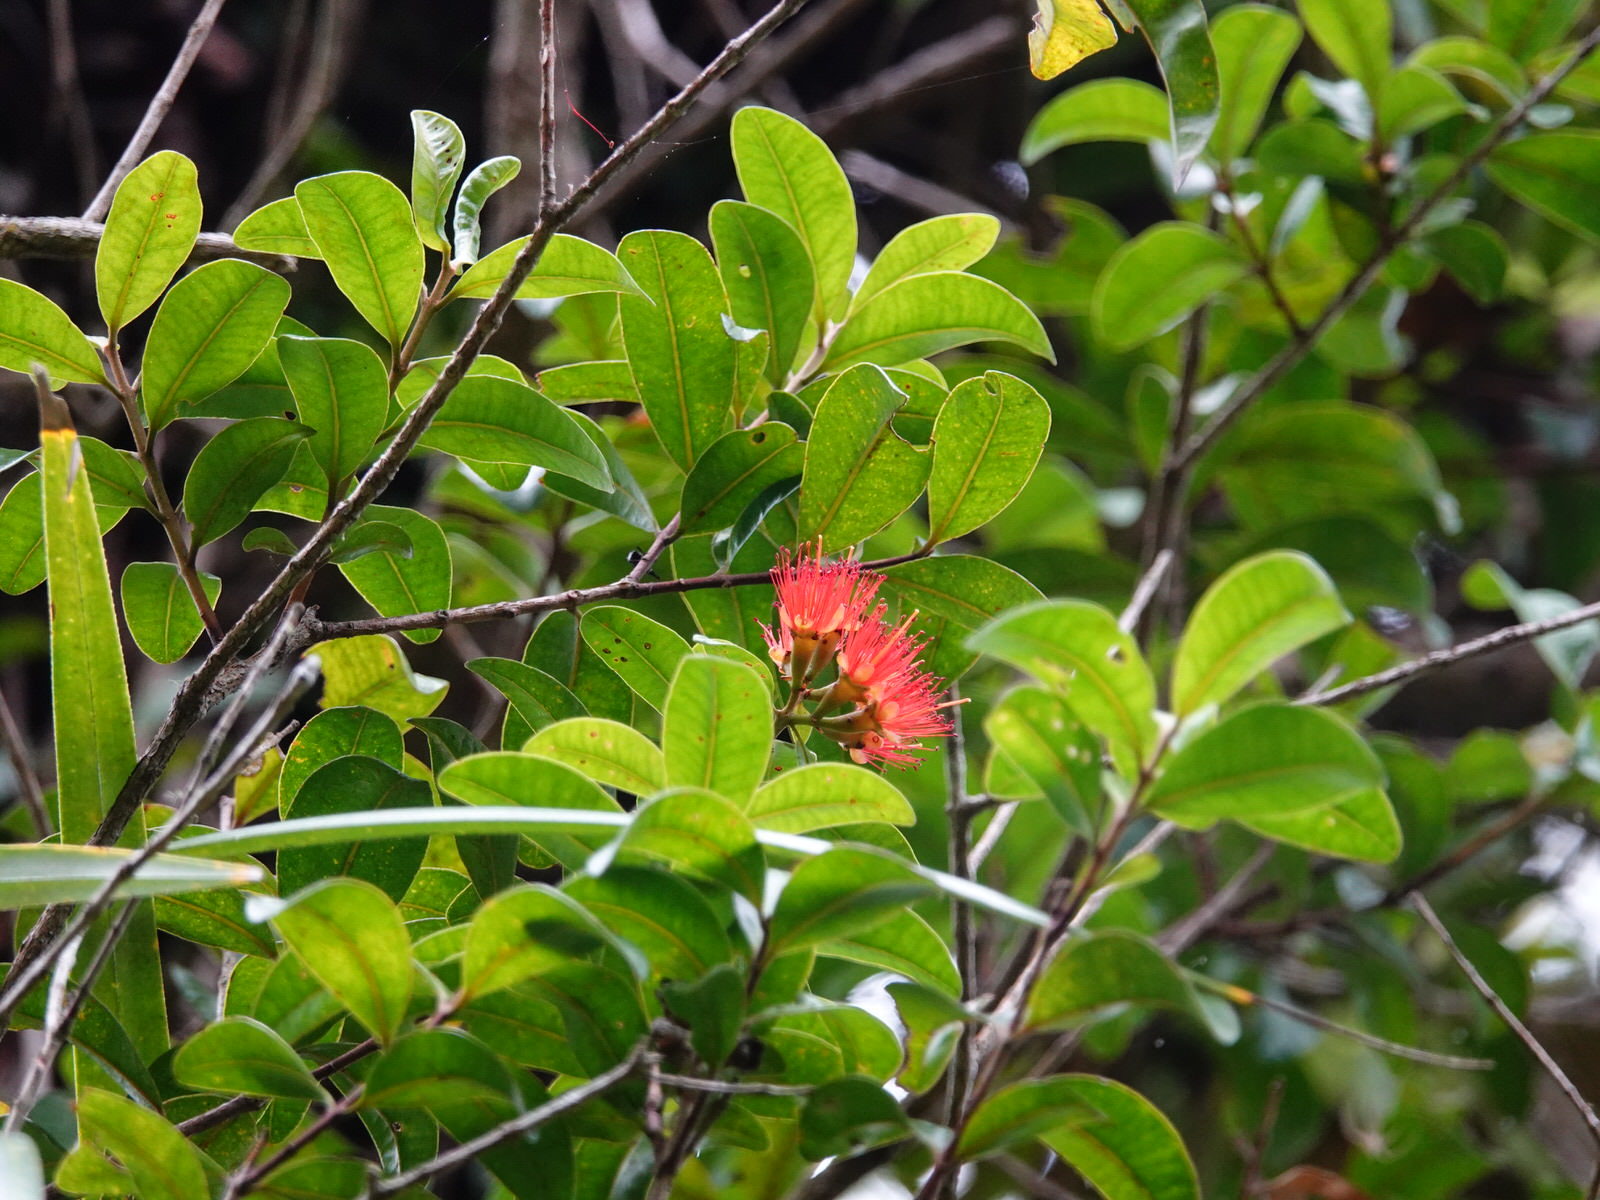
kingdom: Plantae
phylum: Tracheophyta
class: Magnoliopsida
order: Myrtales
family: Myrtaceae
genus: Metrosideros
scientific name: Metrosideros fulgens
